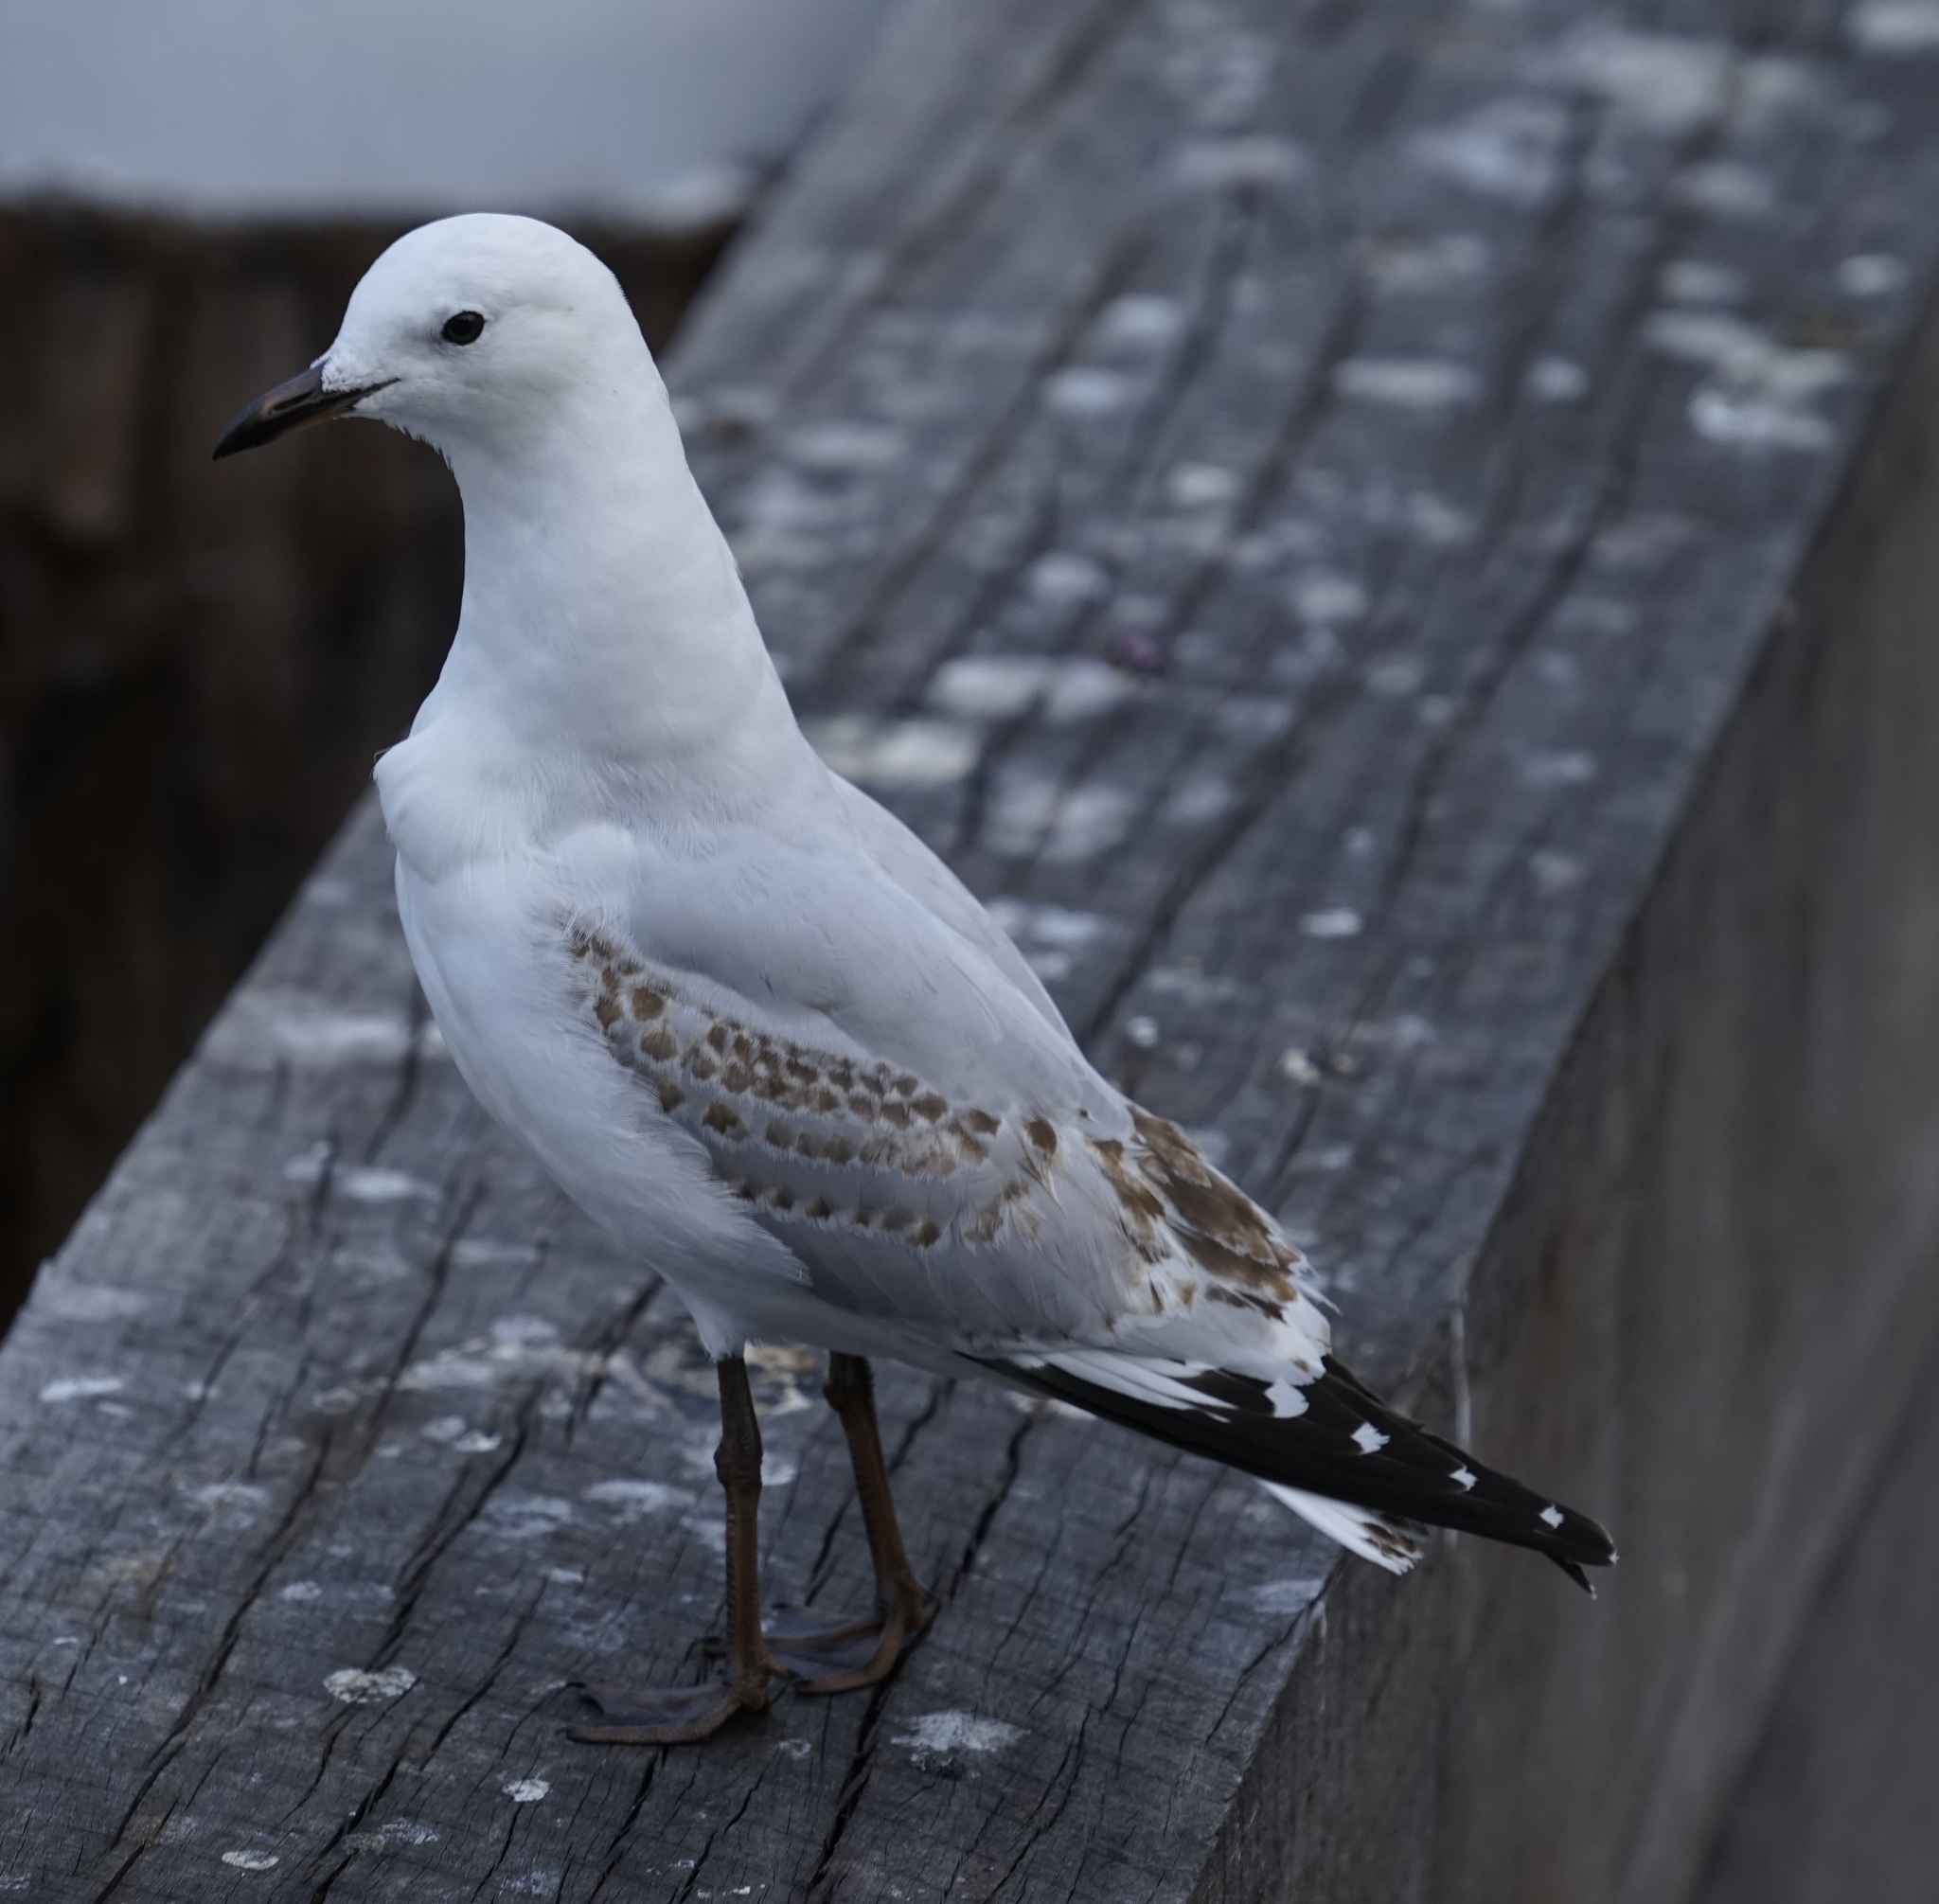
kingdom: Animalia
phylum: Chordata
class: Aves
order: Charadriiformes
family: Laridae
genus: Chroicocephalus
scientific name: Chroicocephalus novaehollandiae
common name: Silver gull
